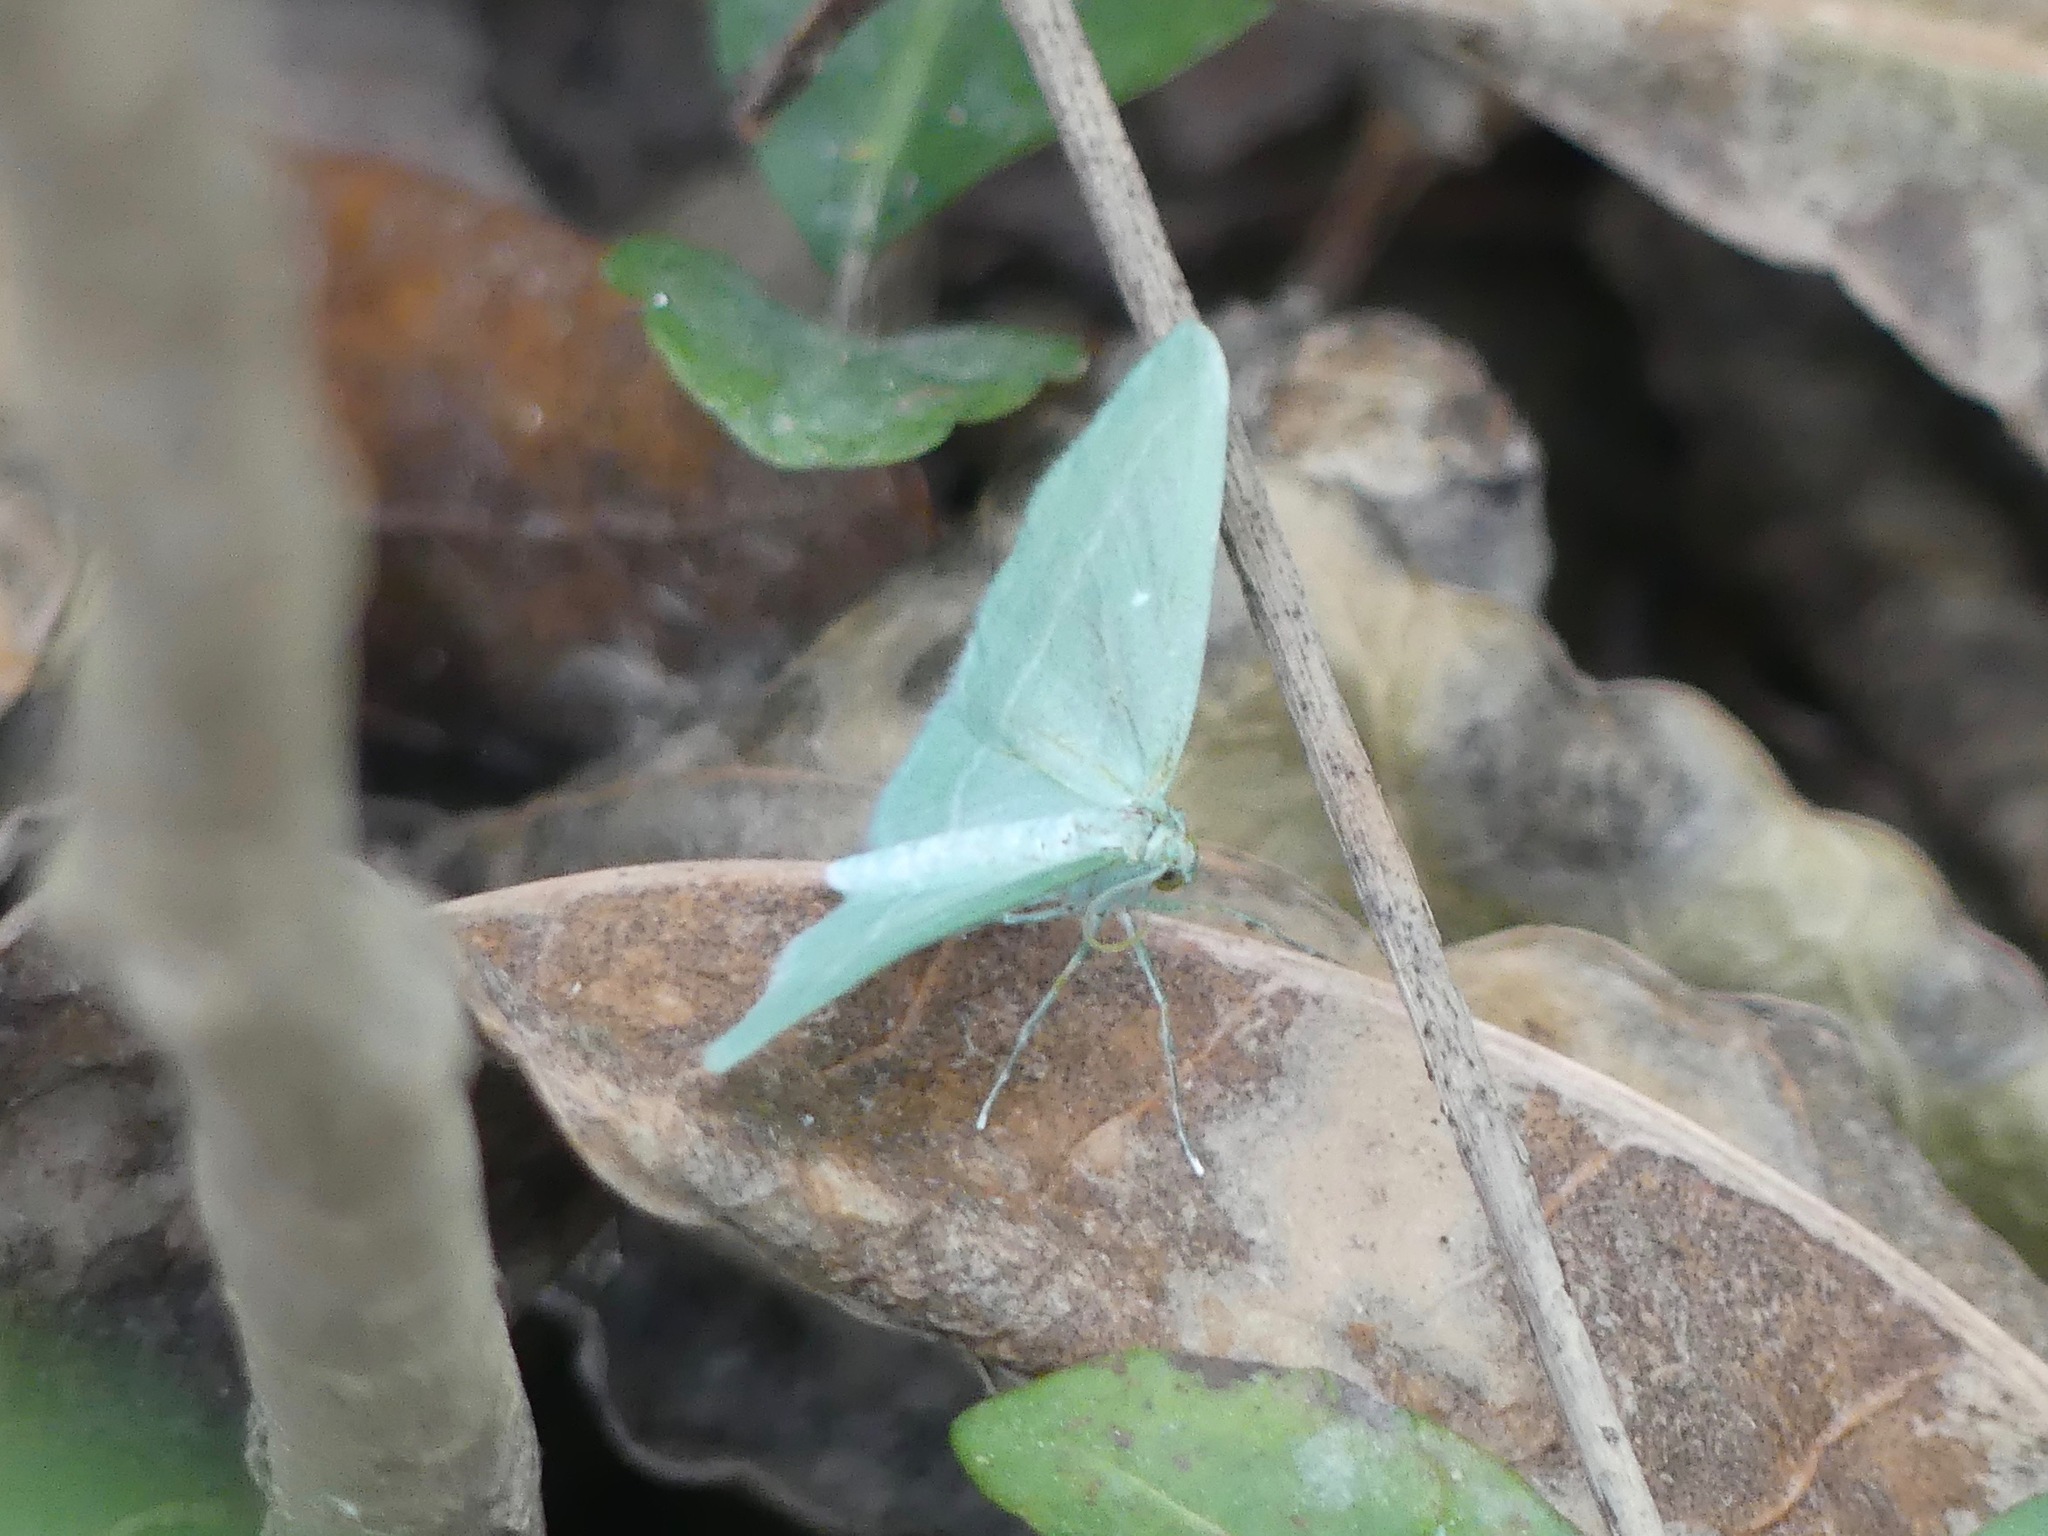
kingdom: Animalia
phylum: Arthropoda
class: Insecta
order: Lepidoptera
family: Geometridae
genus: Dyspteris
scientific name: Dyspteris abortivaria
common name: Bad-wing
